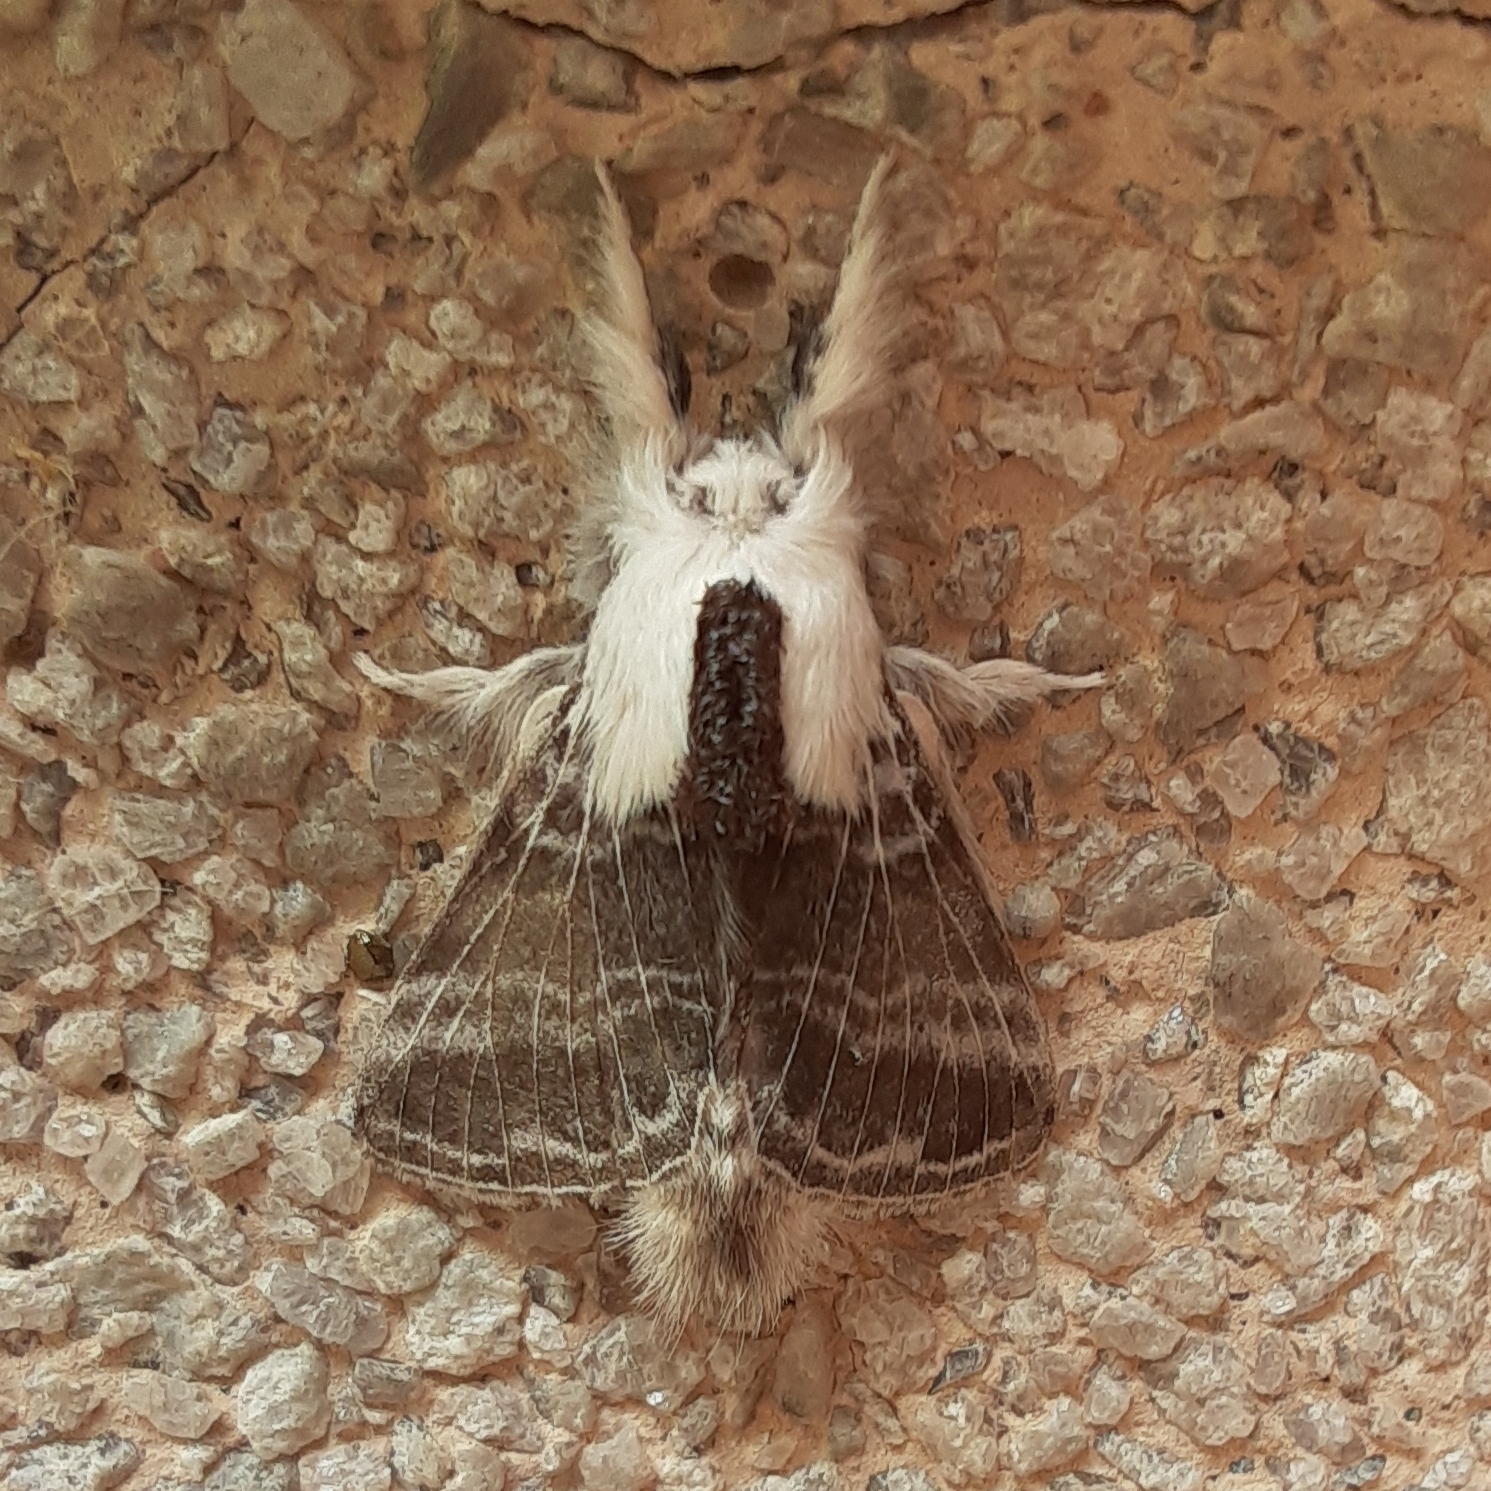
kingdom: Animalia
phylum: Arthropoda
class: Insecta
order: Lepidoptera
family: Lasiocampidae
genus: Tolype
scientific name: Tolype velleda
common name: Large tolype moth
